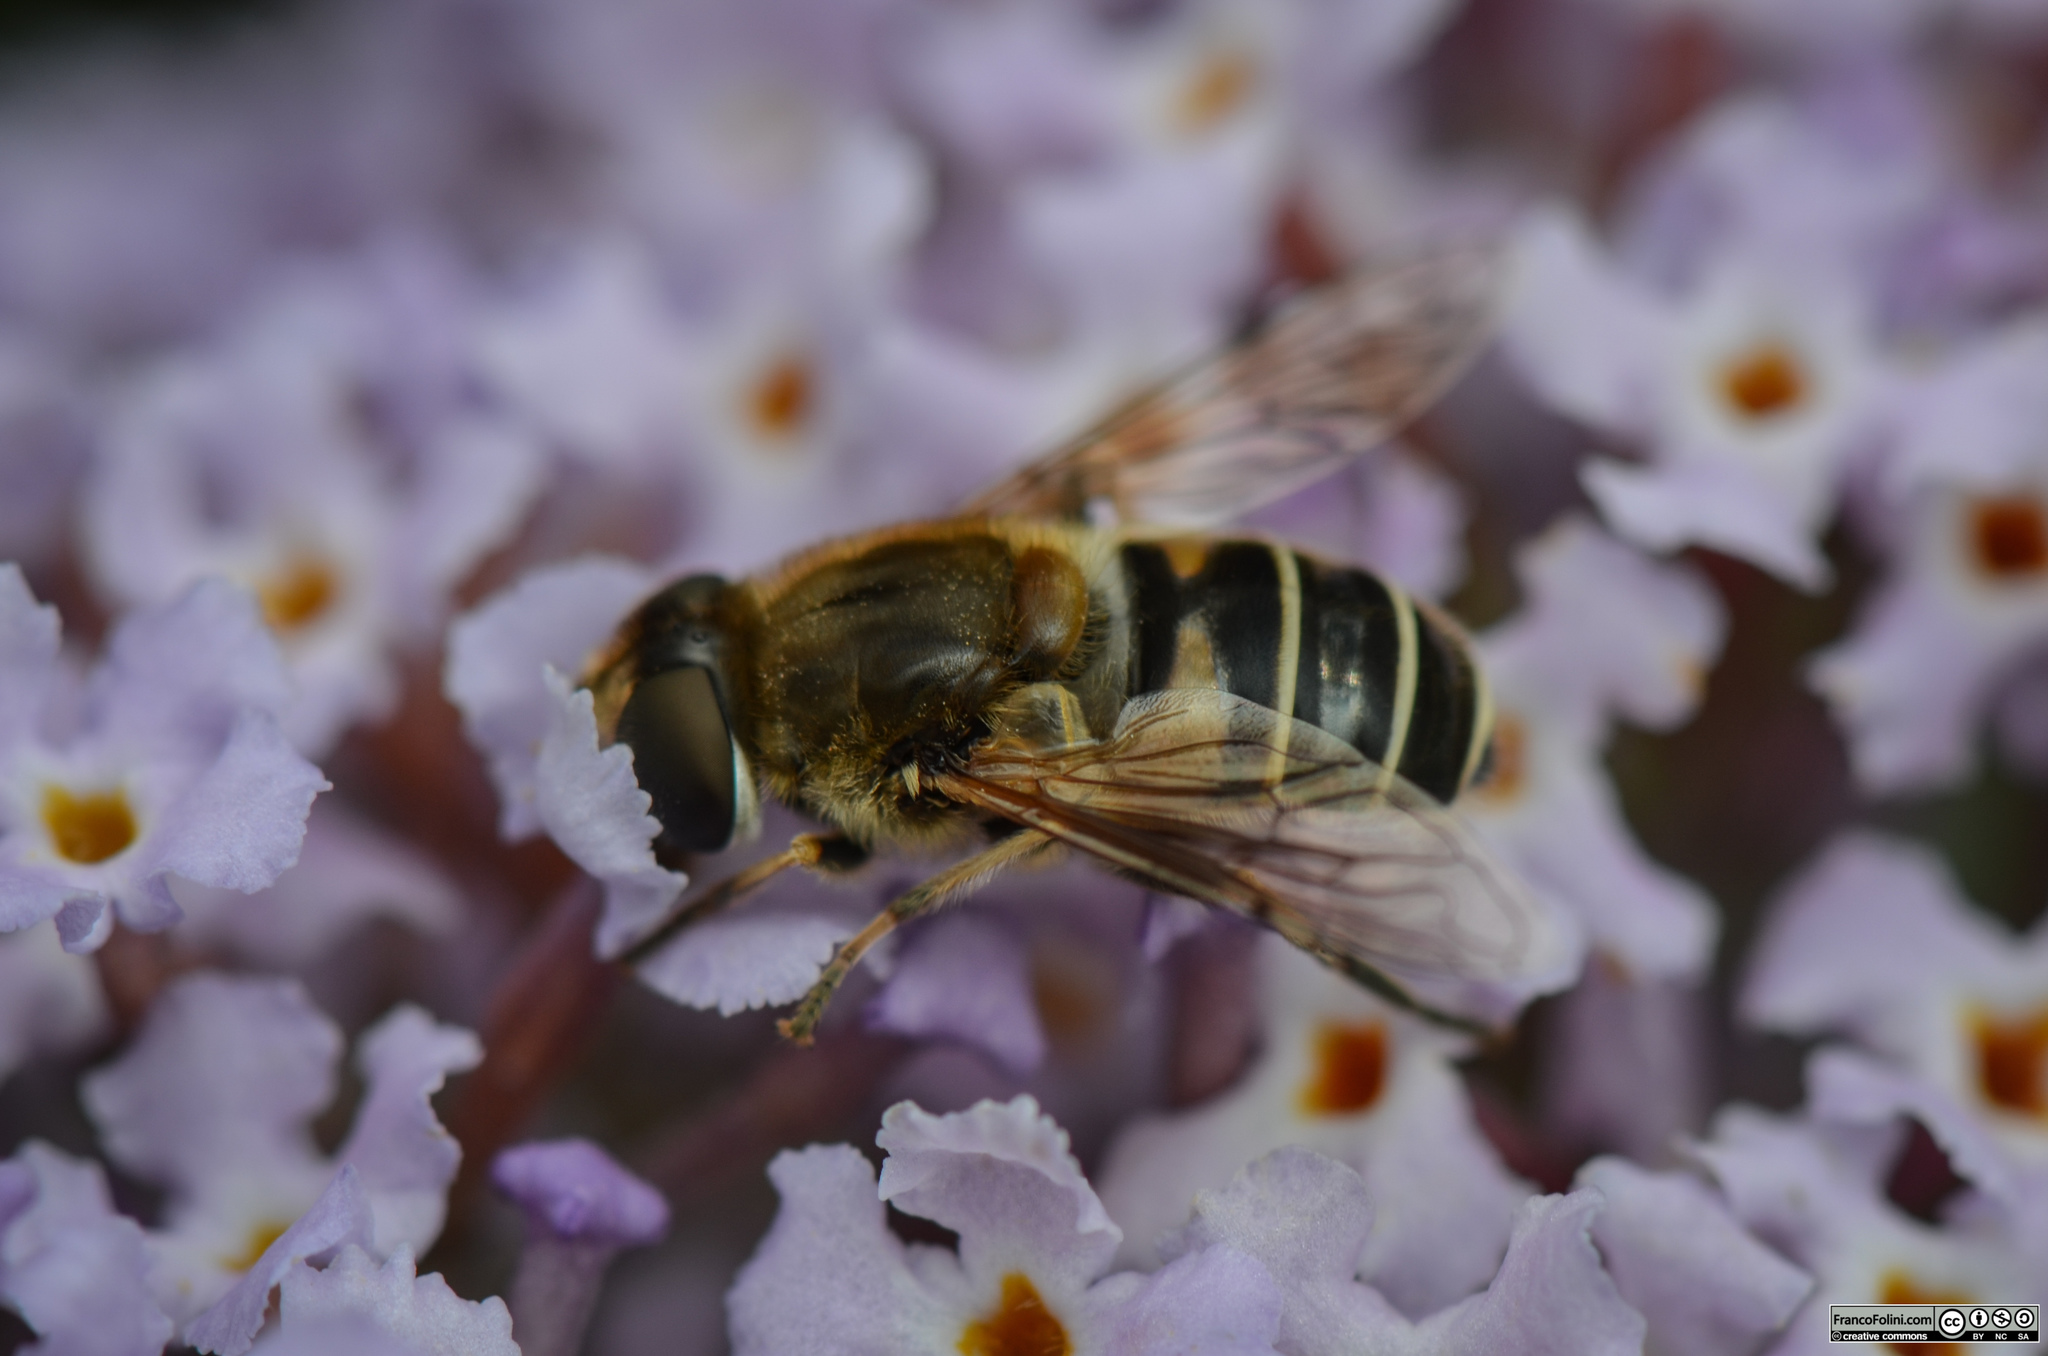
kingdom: Animalia
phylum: Arthropoda
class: Insecta
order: Diptera
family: Syrphidae
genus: Eristalis
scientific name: Eristalis arbustorum
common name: Hover fly
